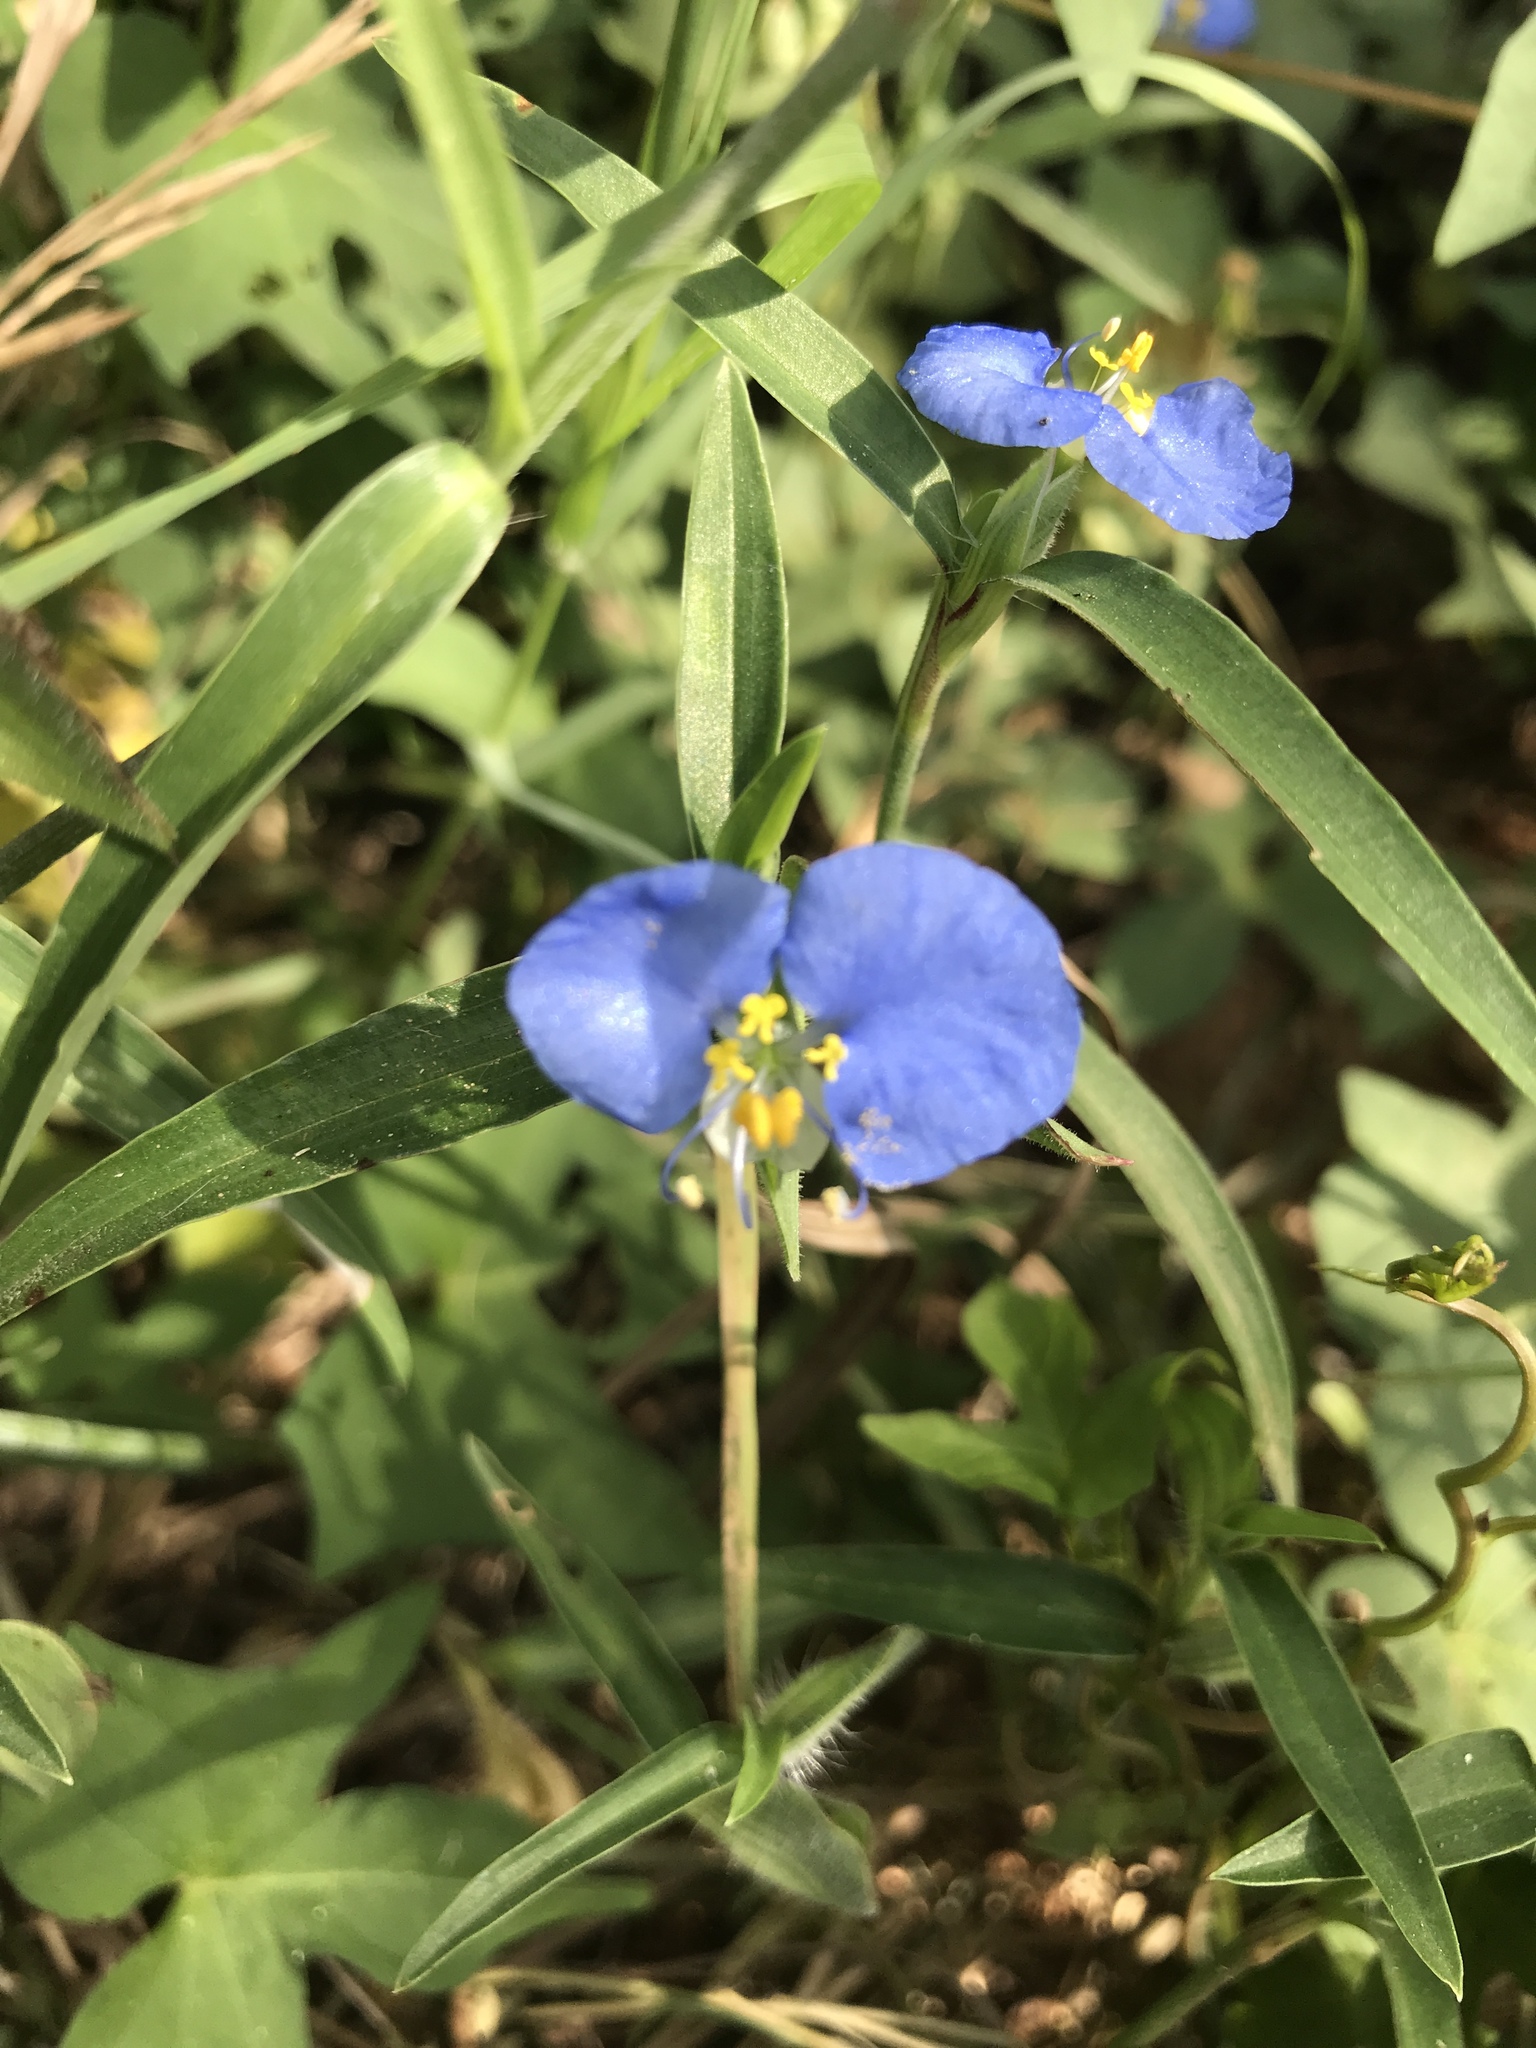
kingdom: Plantae
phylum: Tracheophyta
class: Liliopsida
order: Commelinales
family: Commelinaceae
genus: Commelina
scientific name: Commelina erecta
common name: Blousel blommetjie
